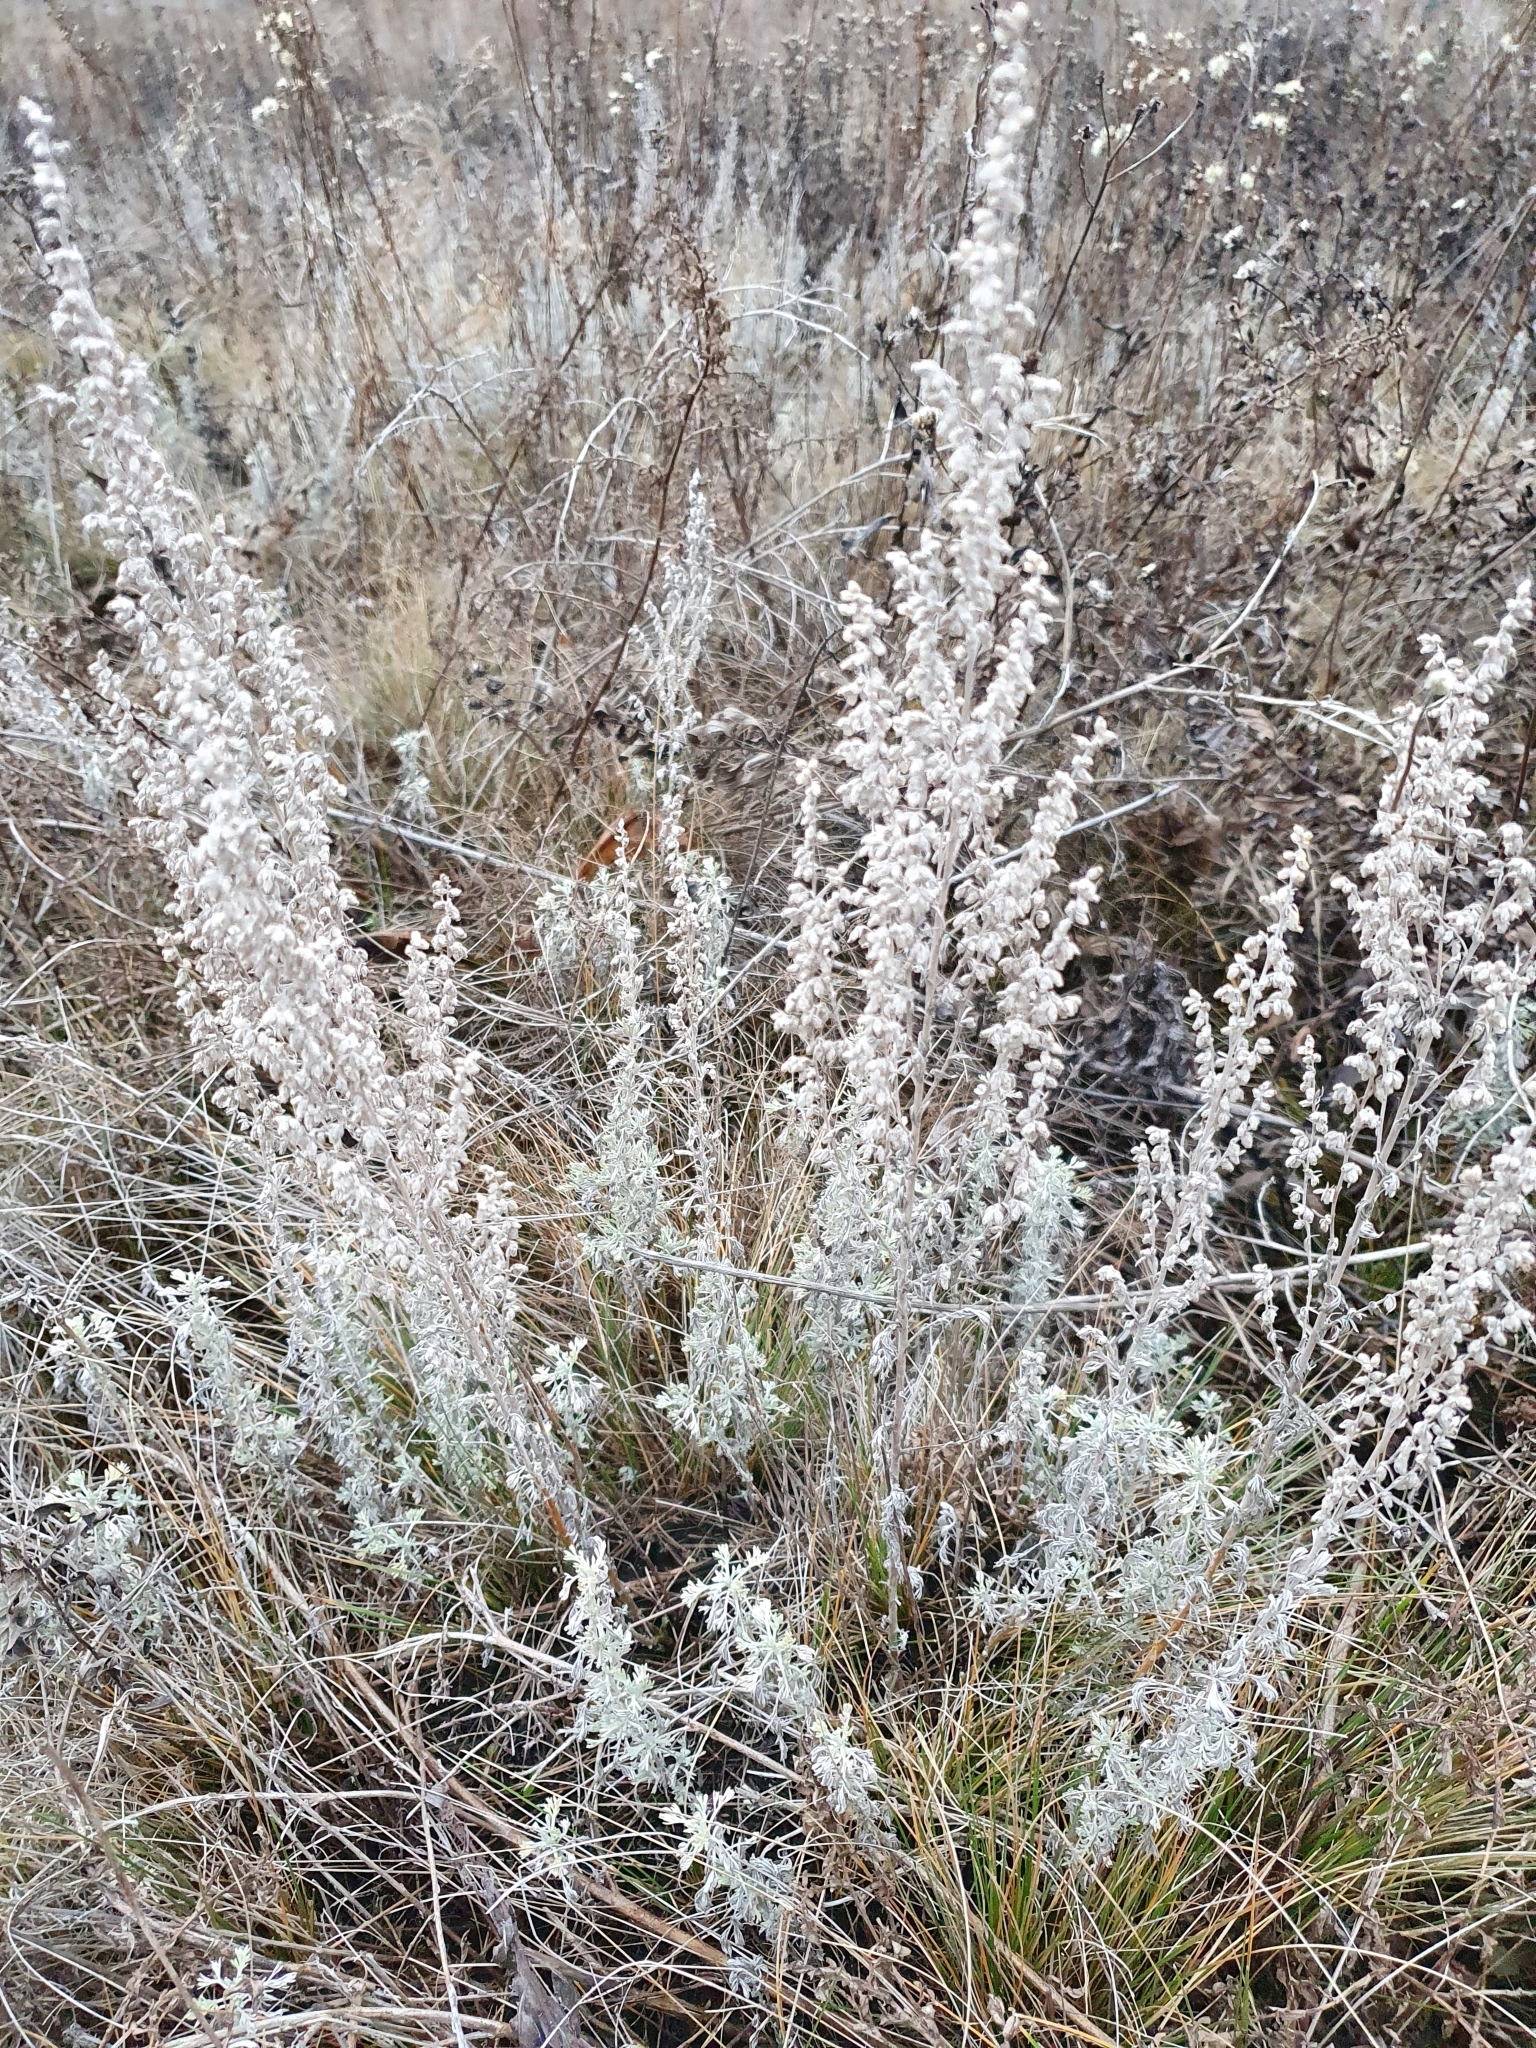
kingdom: Plantae
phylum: Tracheophyta
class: Magnoliopsida
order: Asterales
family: Asteraceae
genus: Artemisia
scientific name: Artemisia austriaca
